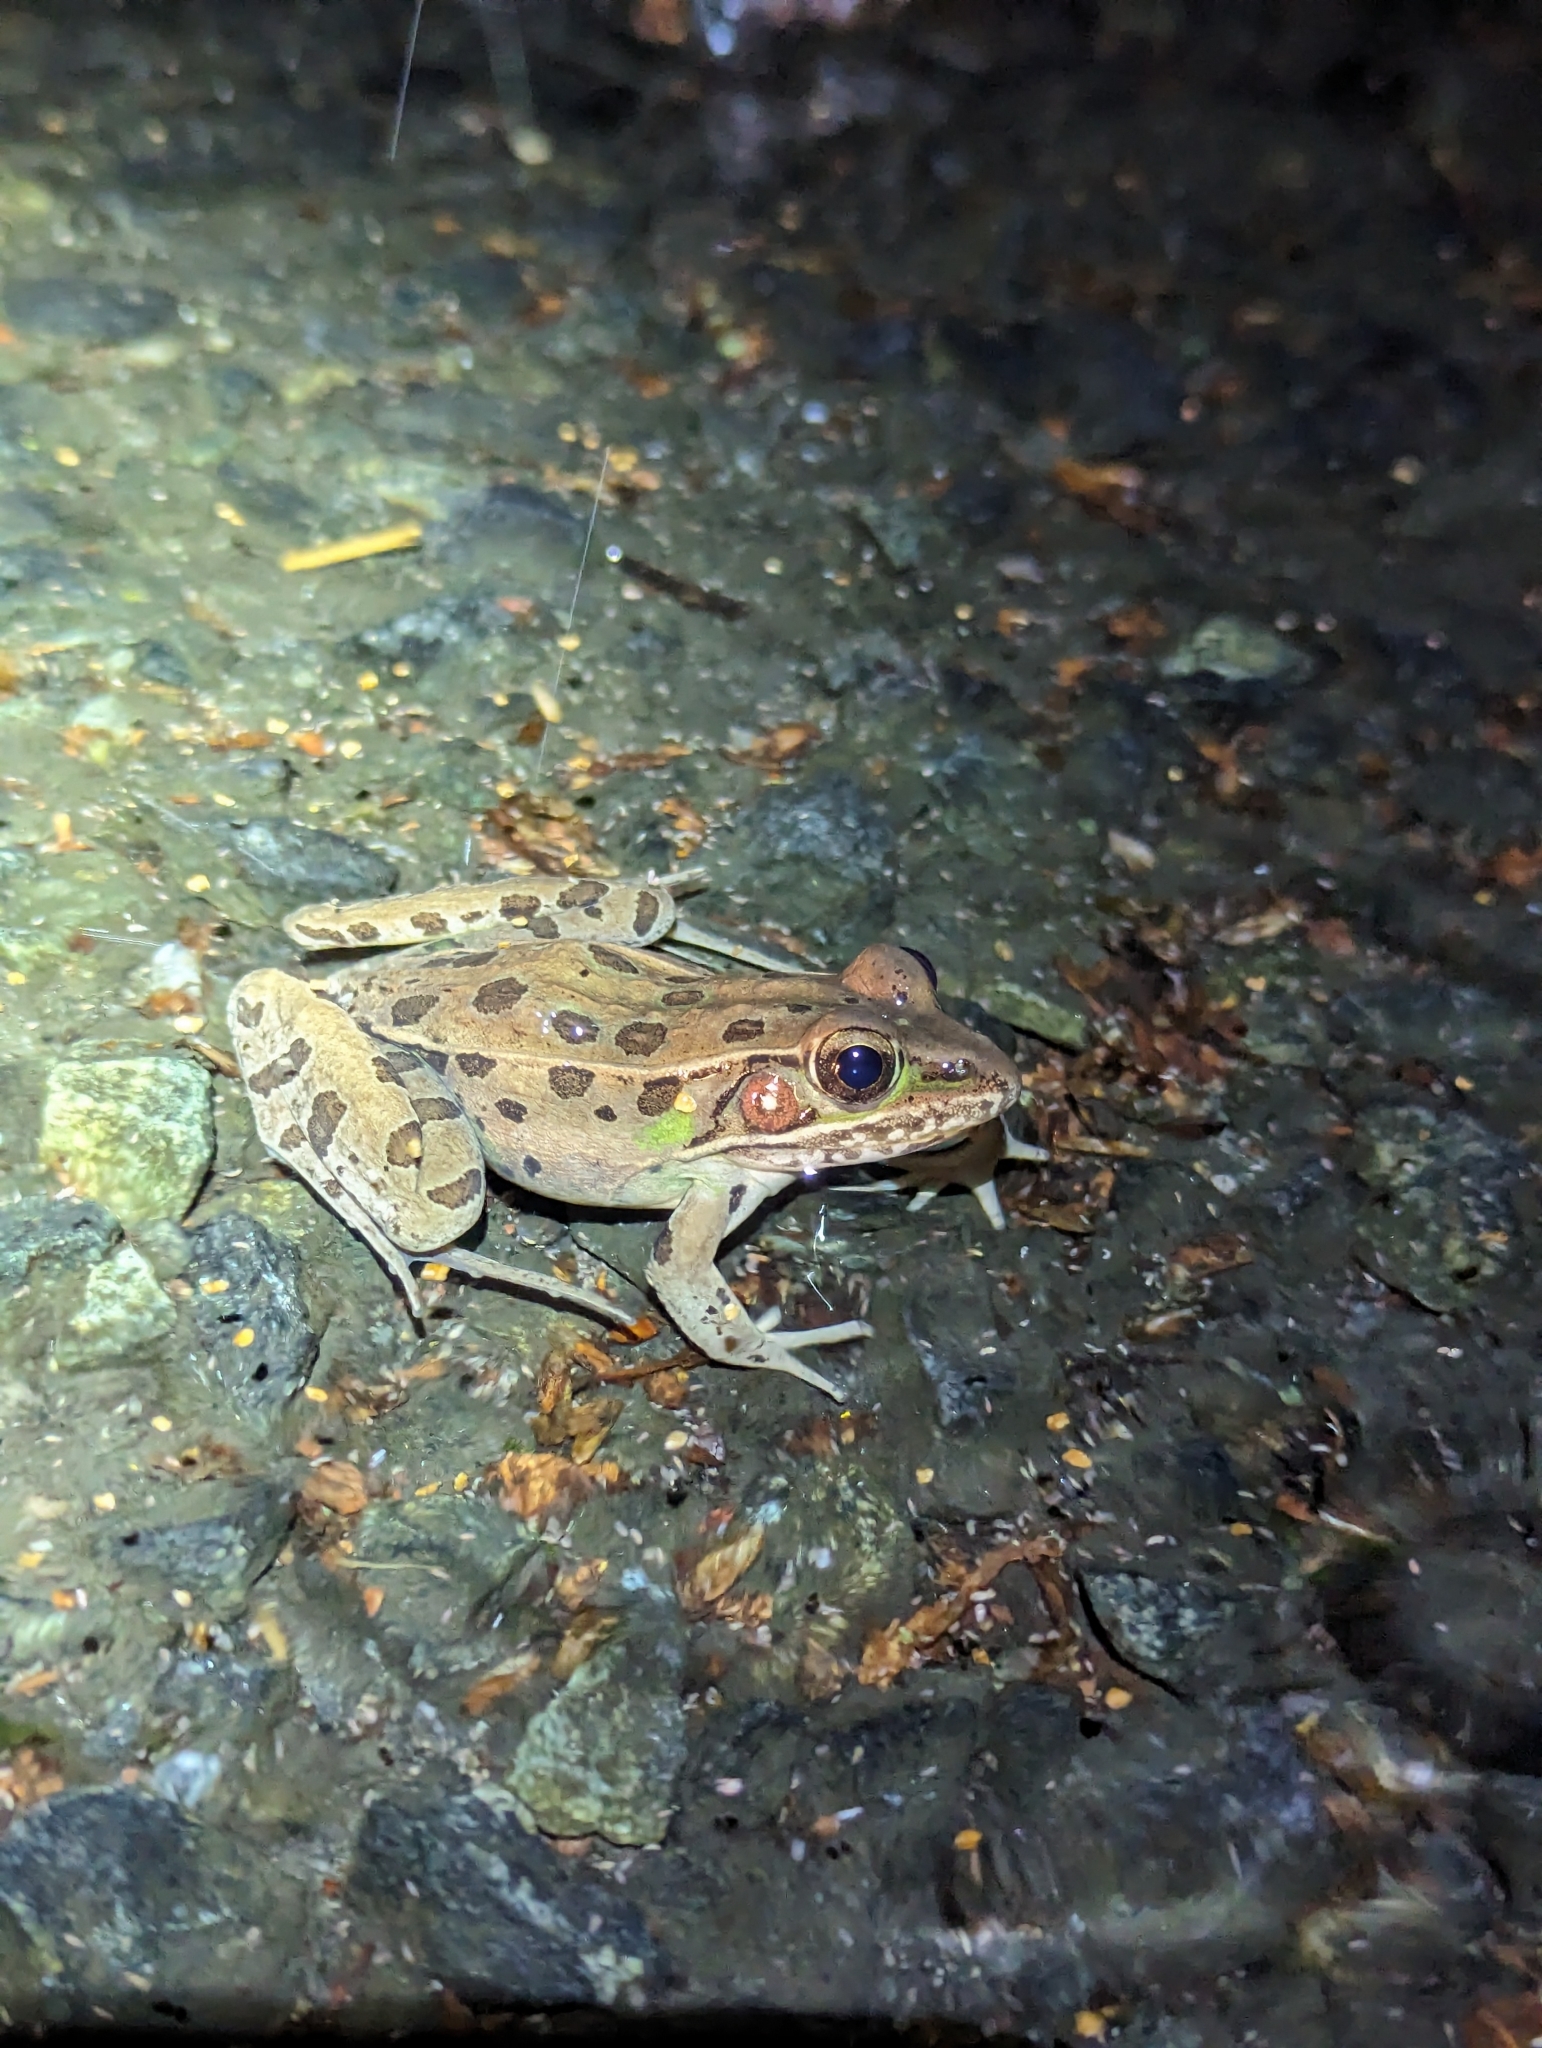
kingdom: Animalia
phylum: Chordata
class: Amphibia
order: Anura
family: Ranidae
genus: Lithobates
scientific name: Lithobates sphenocephalus
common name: Southern leopard frog
